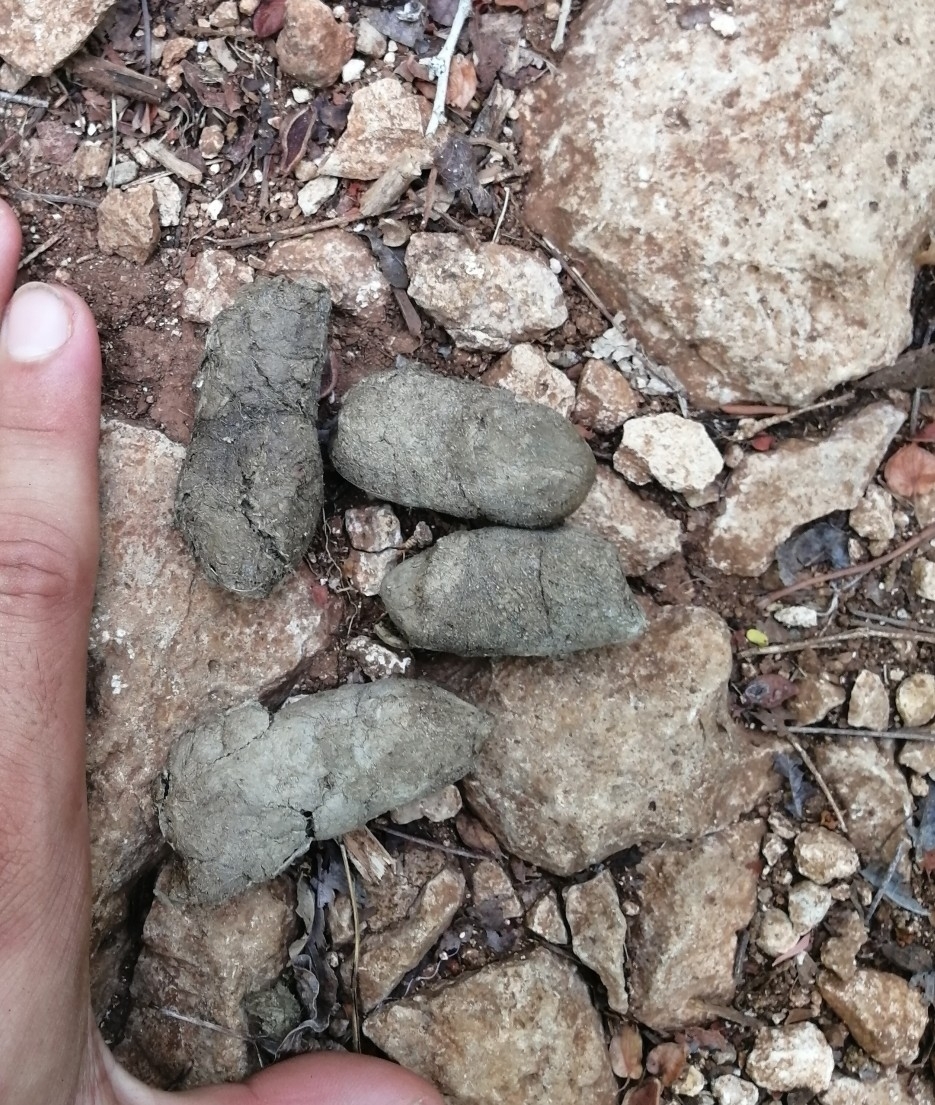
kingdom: Animalia
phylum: Chordata
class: Mammalia
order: Carnivora
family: Felidae
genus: Leopardus
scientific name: Leopardus pardalis
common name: Ocelot
